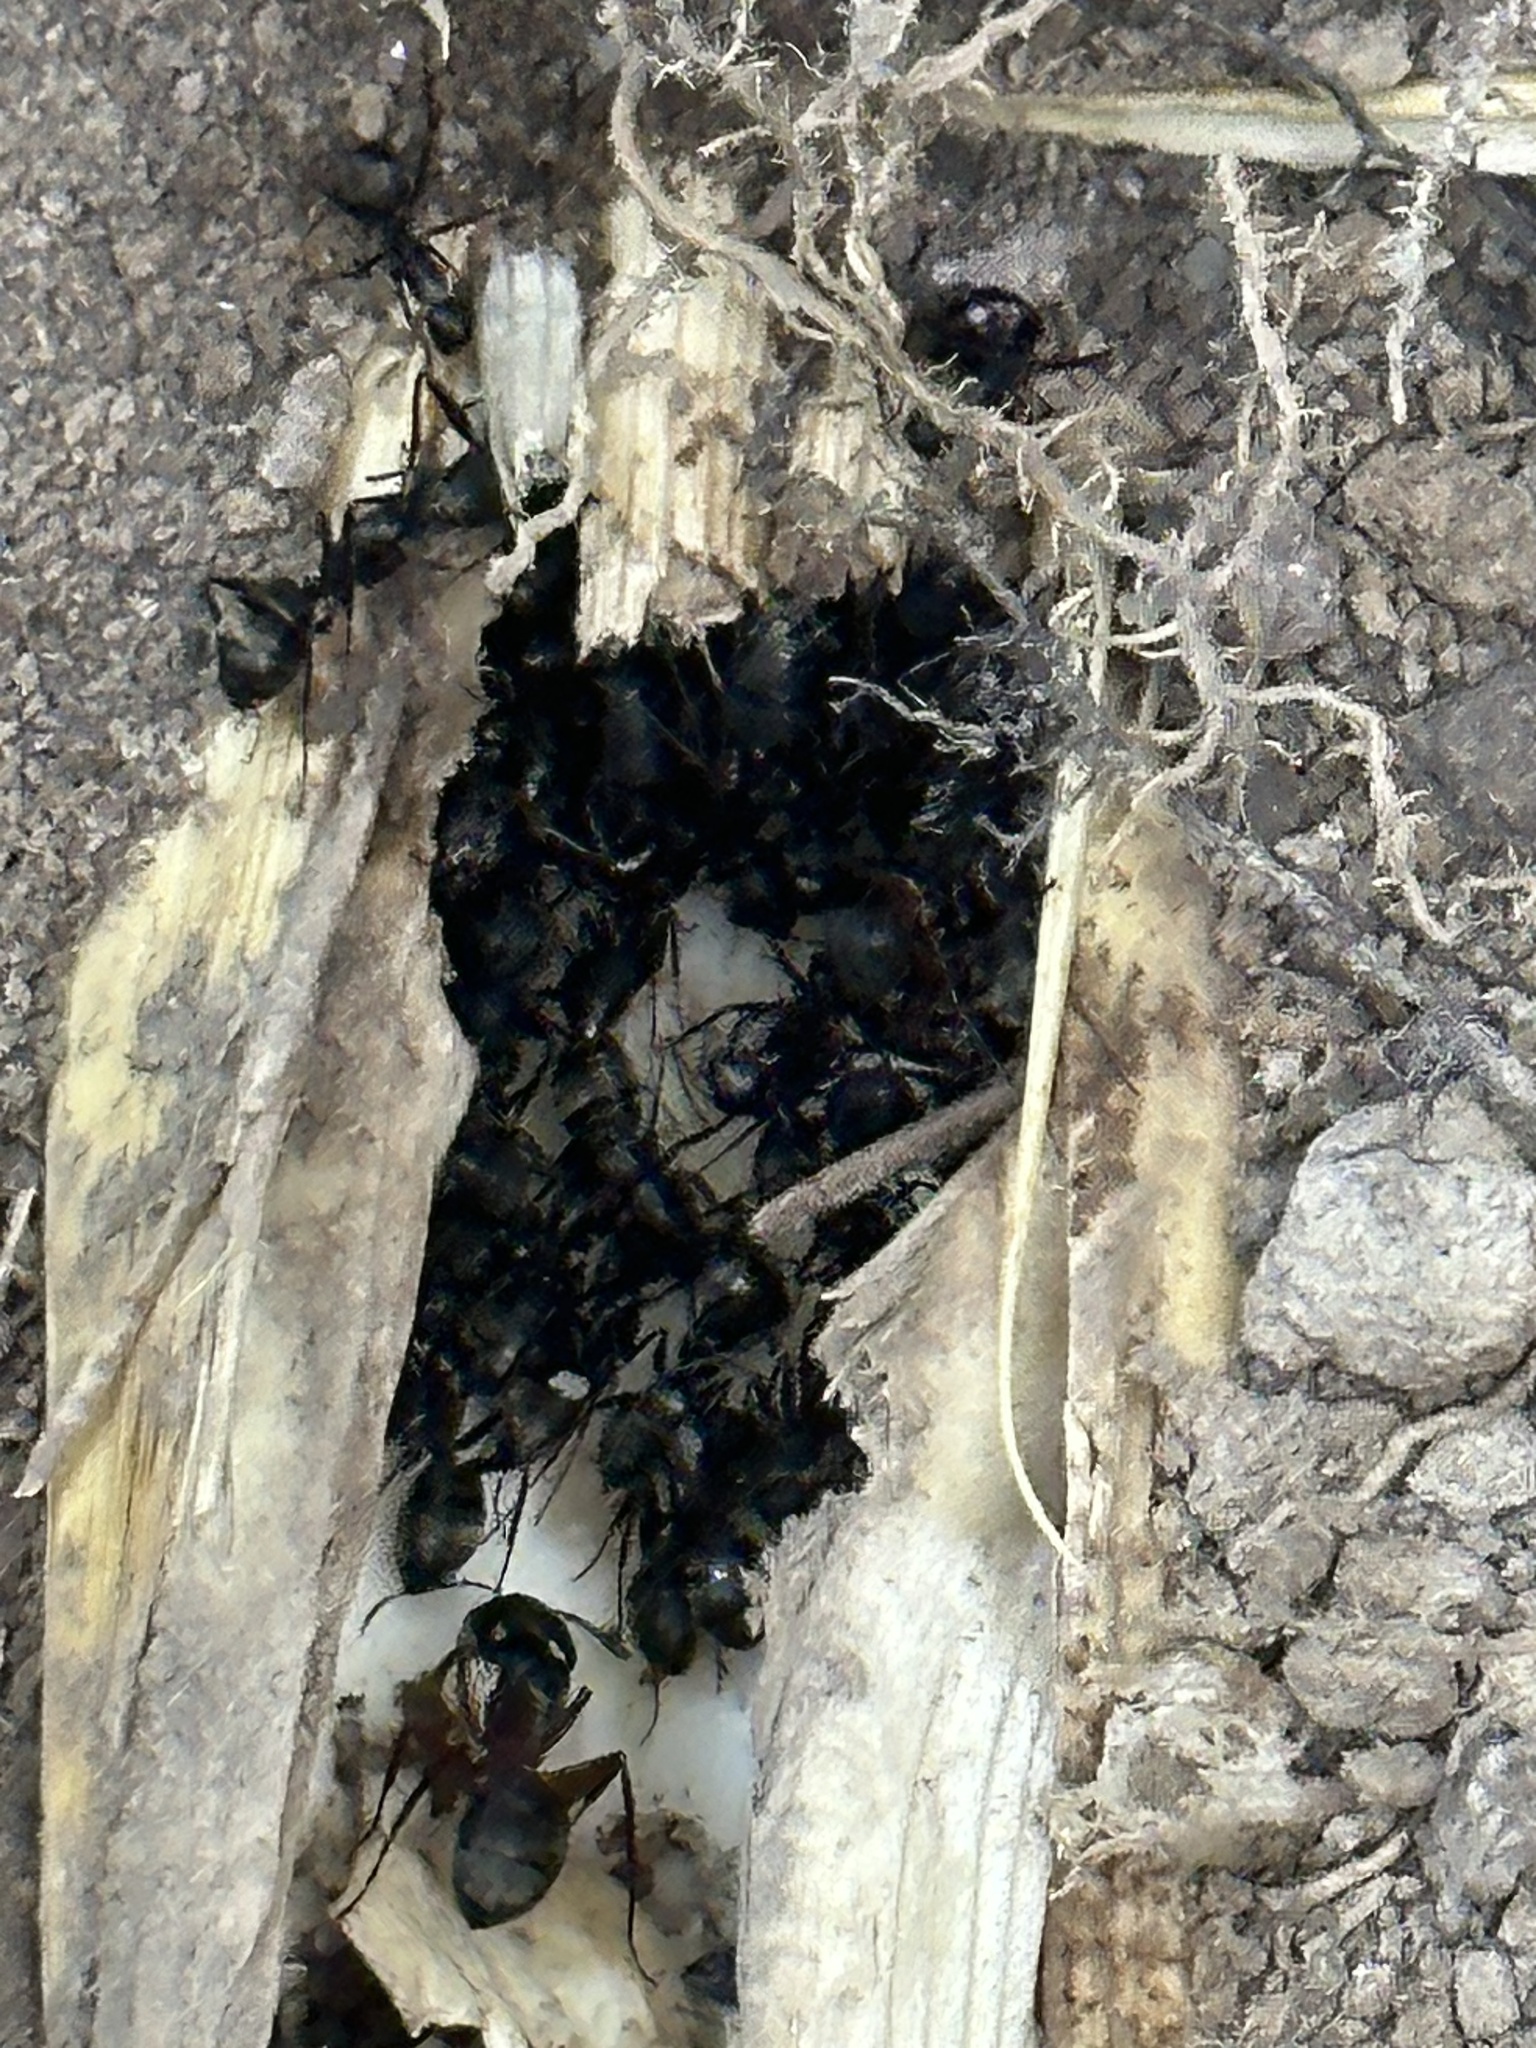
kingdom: Animalia
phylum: Arthropoda
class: Insecta
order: Hymenoptera
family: Formicidae
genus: Camponotus
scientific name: Camponotus pennsylvanicus
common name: Black carpenter ant
